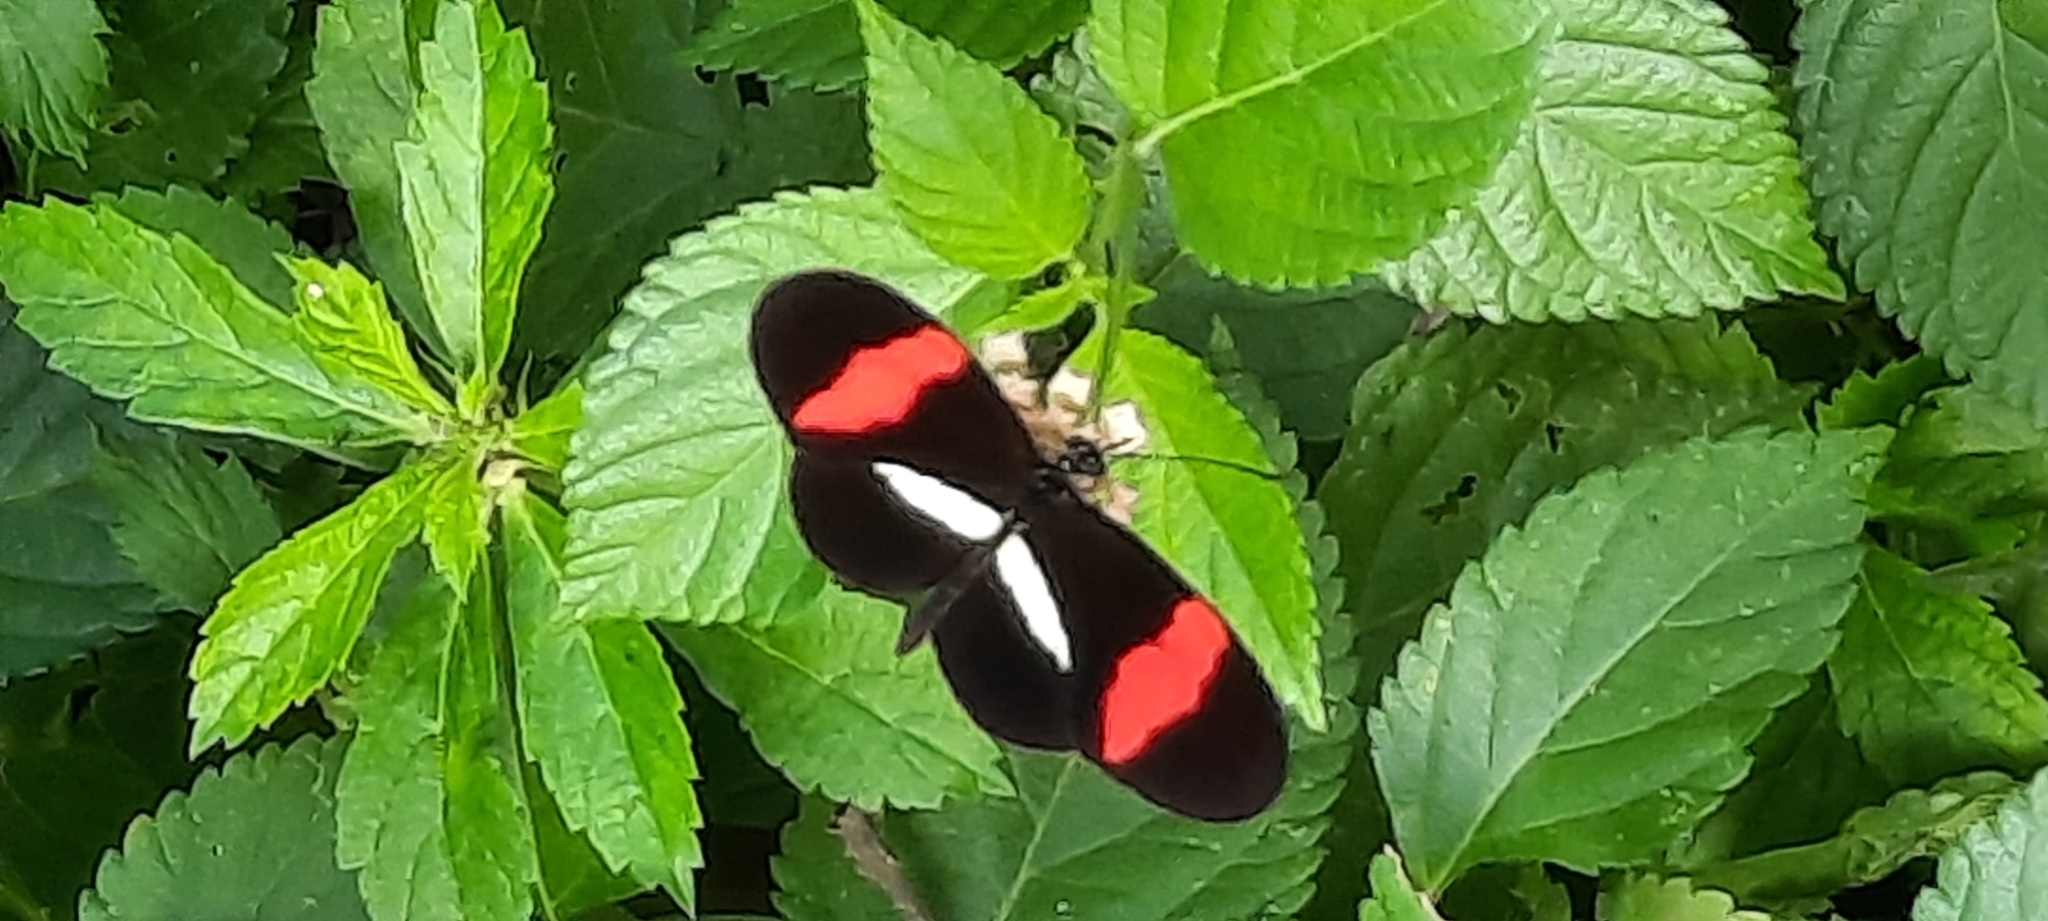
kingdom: Animalia
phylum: Arthropoda
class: Insecta
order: Lepidoptera
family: Nymphalidae
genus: Tirumala
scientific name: Tirumala petiverana
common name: Blue monarch
